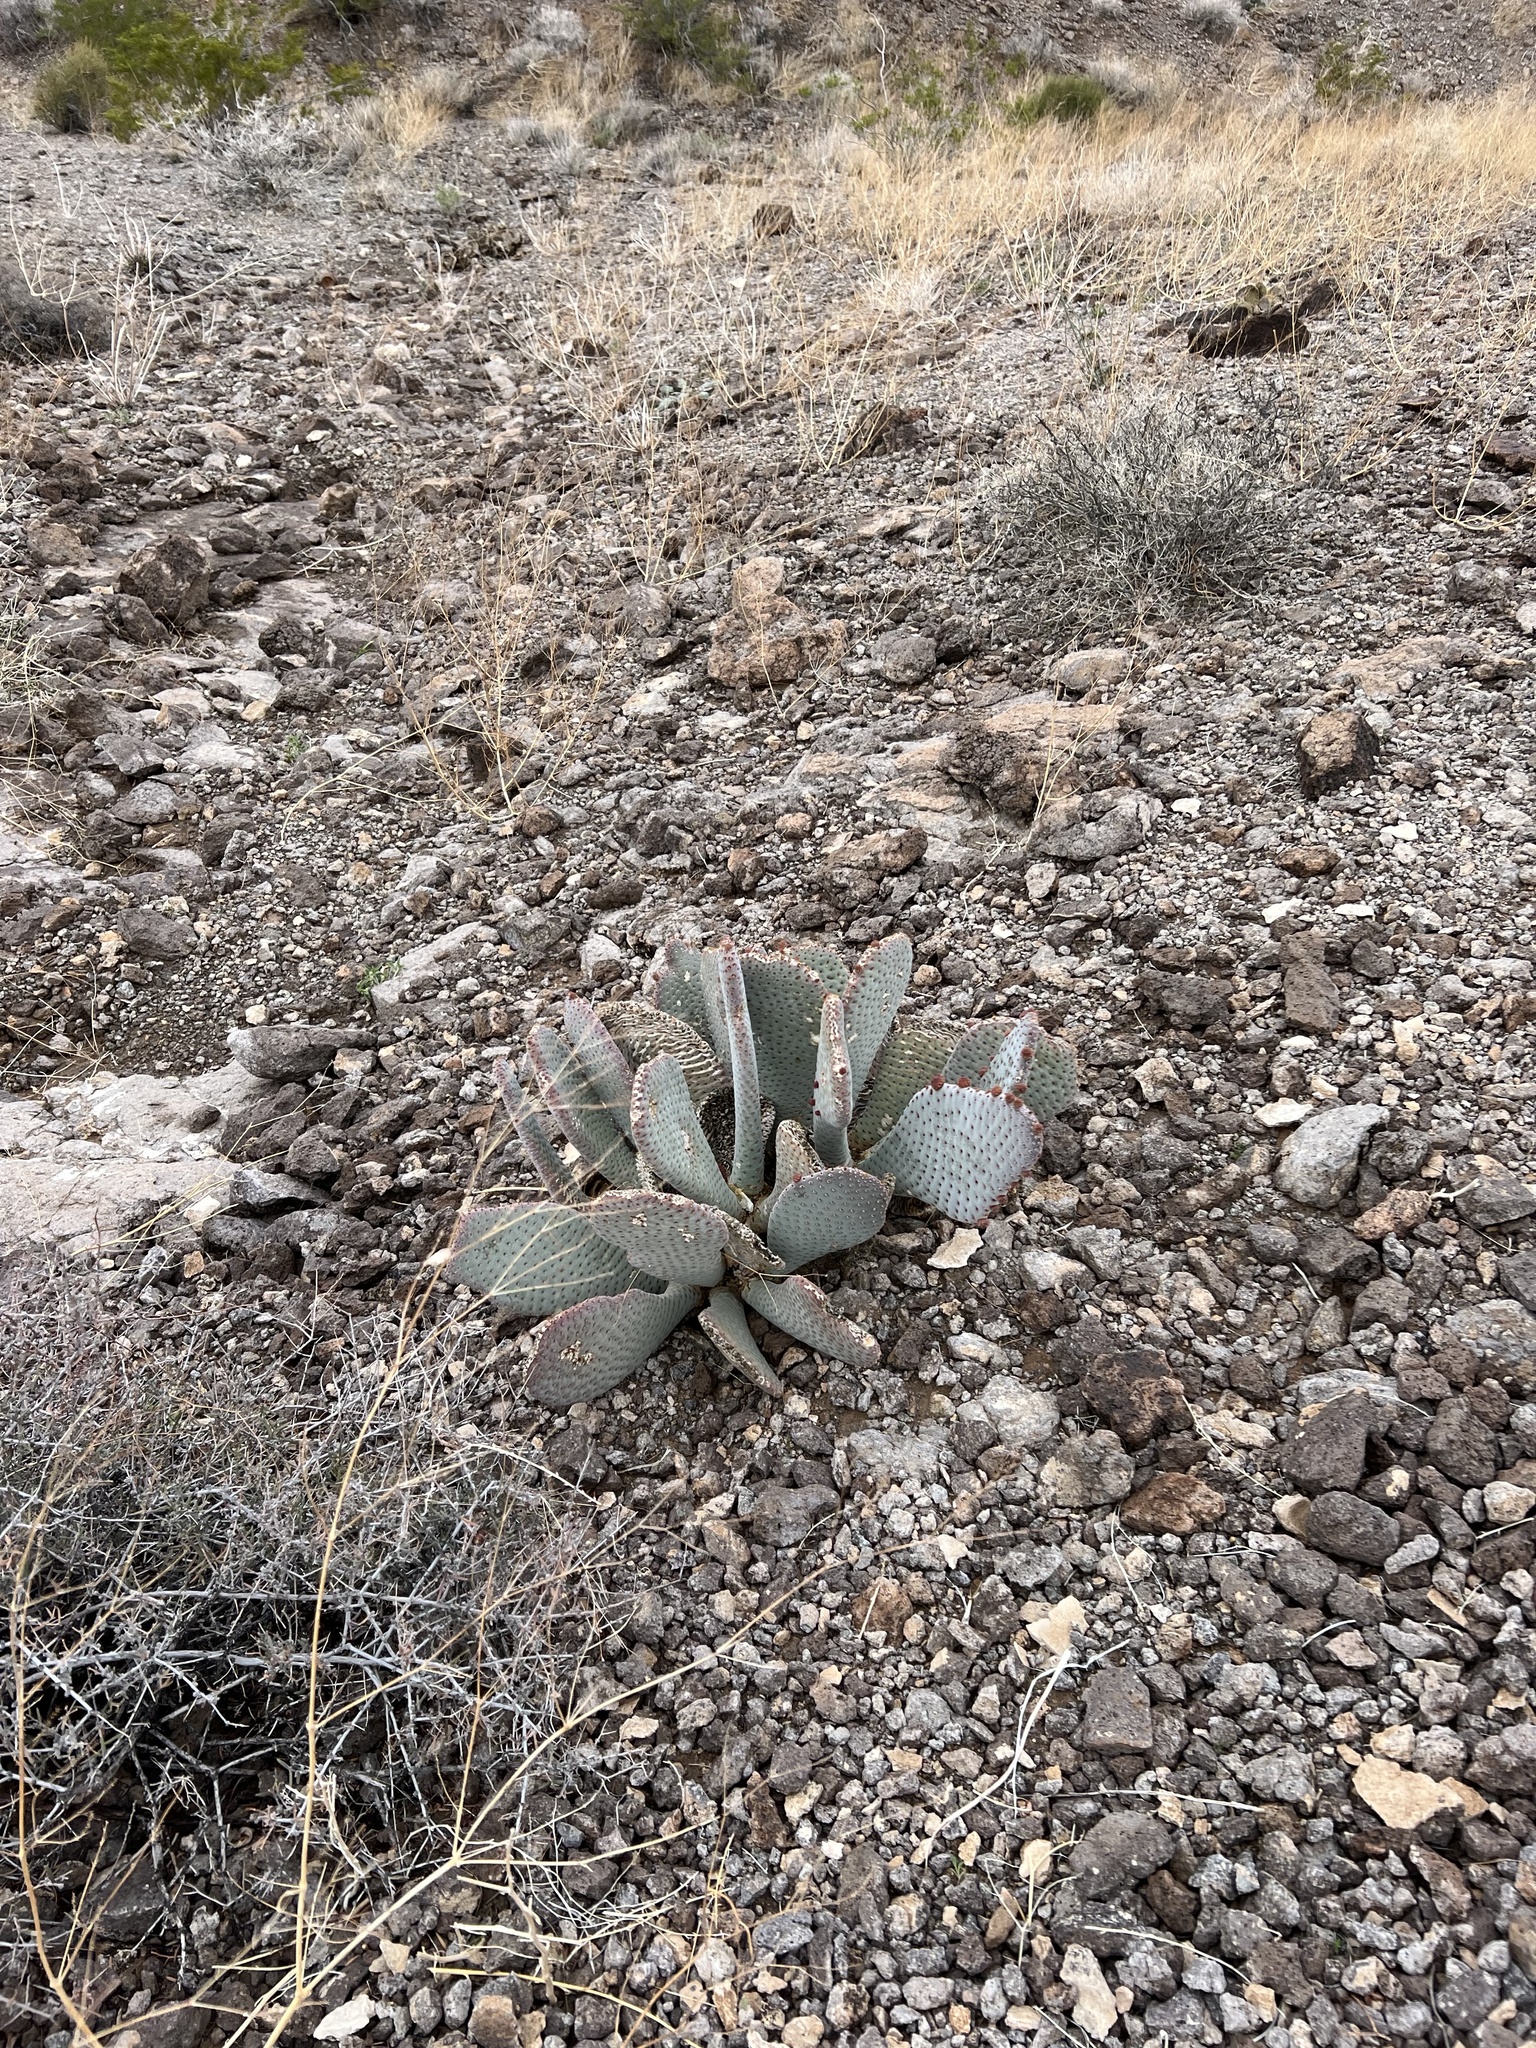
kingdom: Plantae
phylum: Tracheophyta
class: Magnoliopsida
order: Caryophyllales
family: Cactaceae
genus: Opuntia
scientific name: Opuntia basilaris
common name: Beavertail prickly-pear
